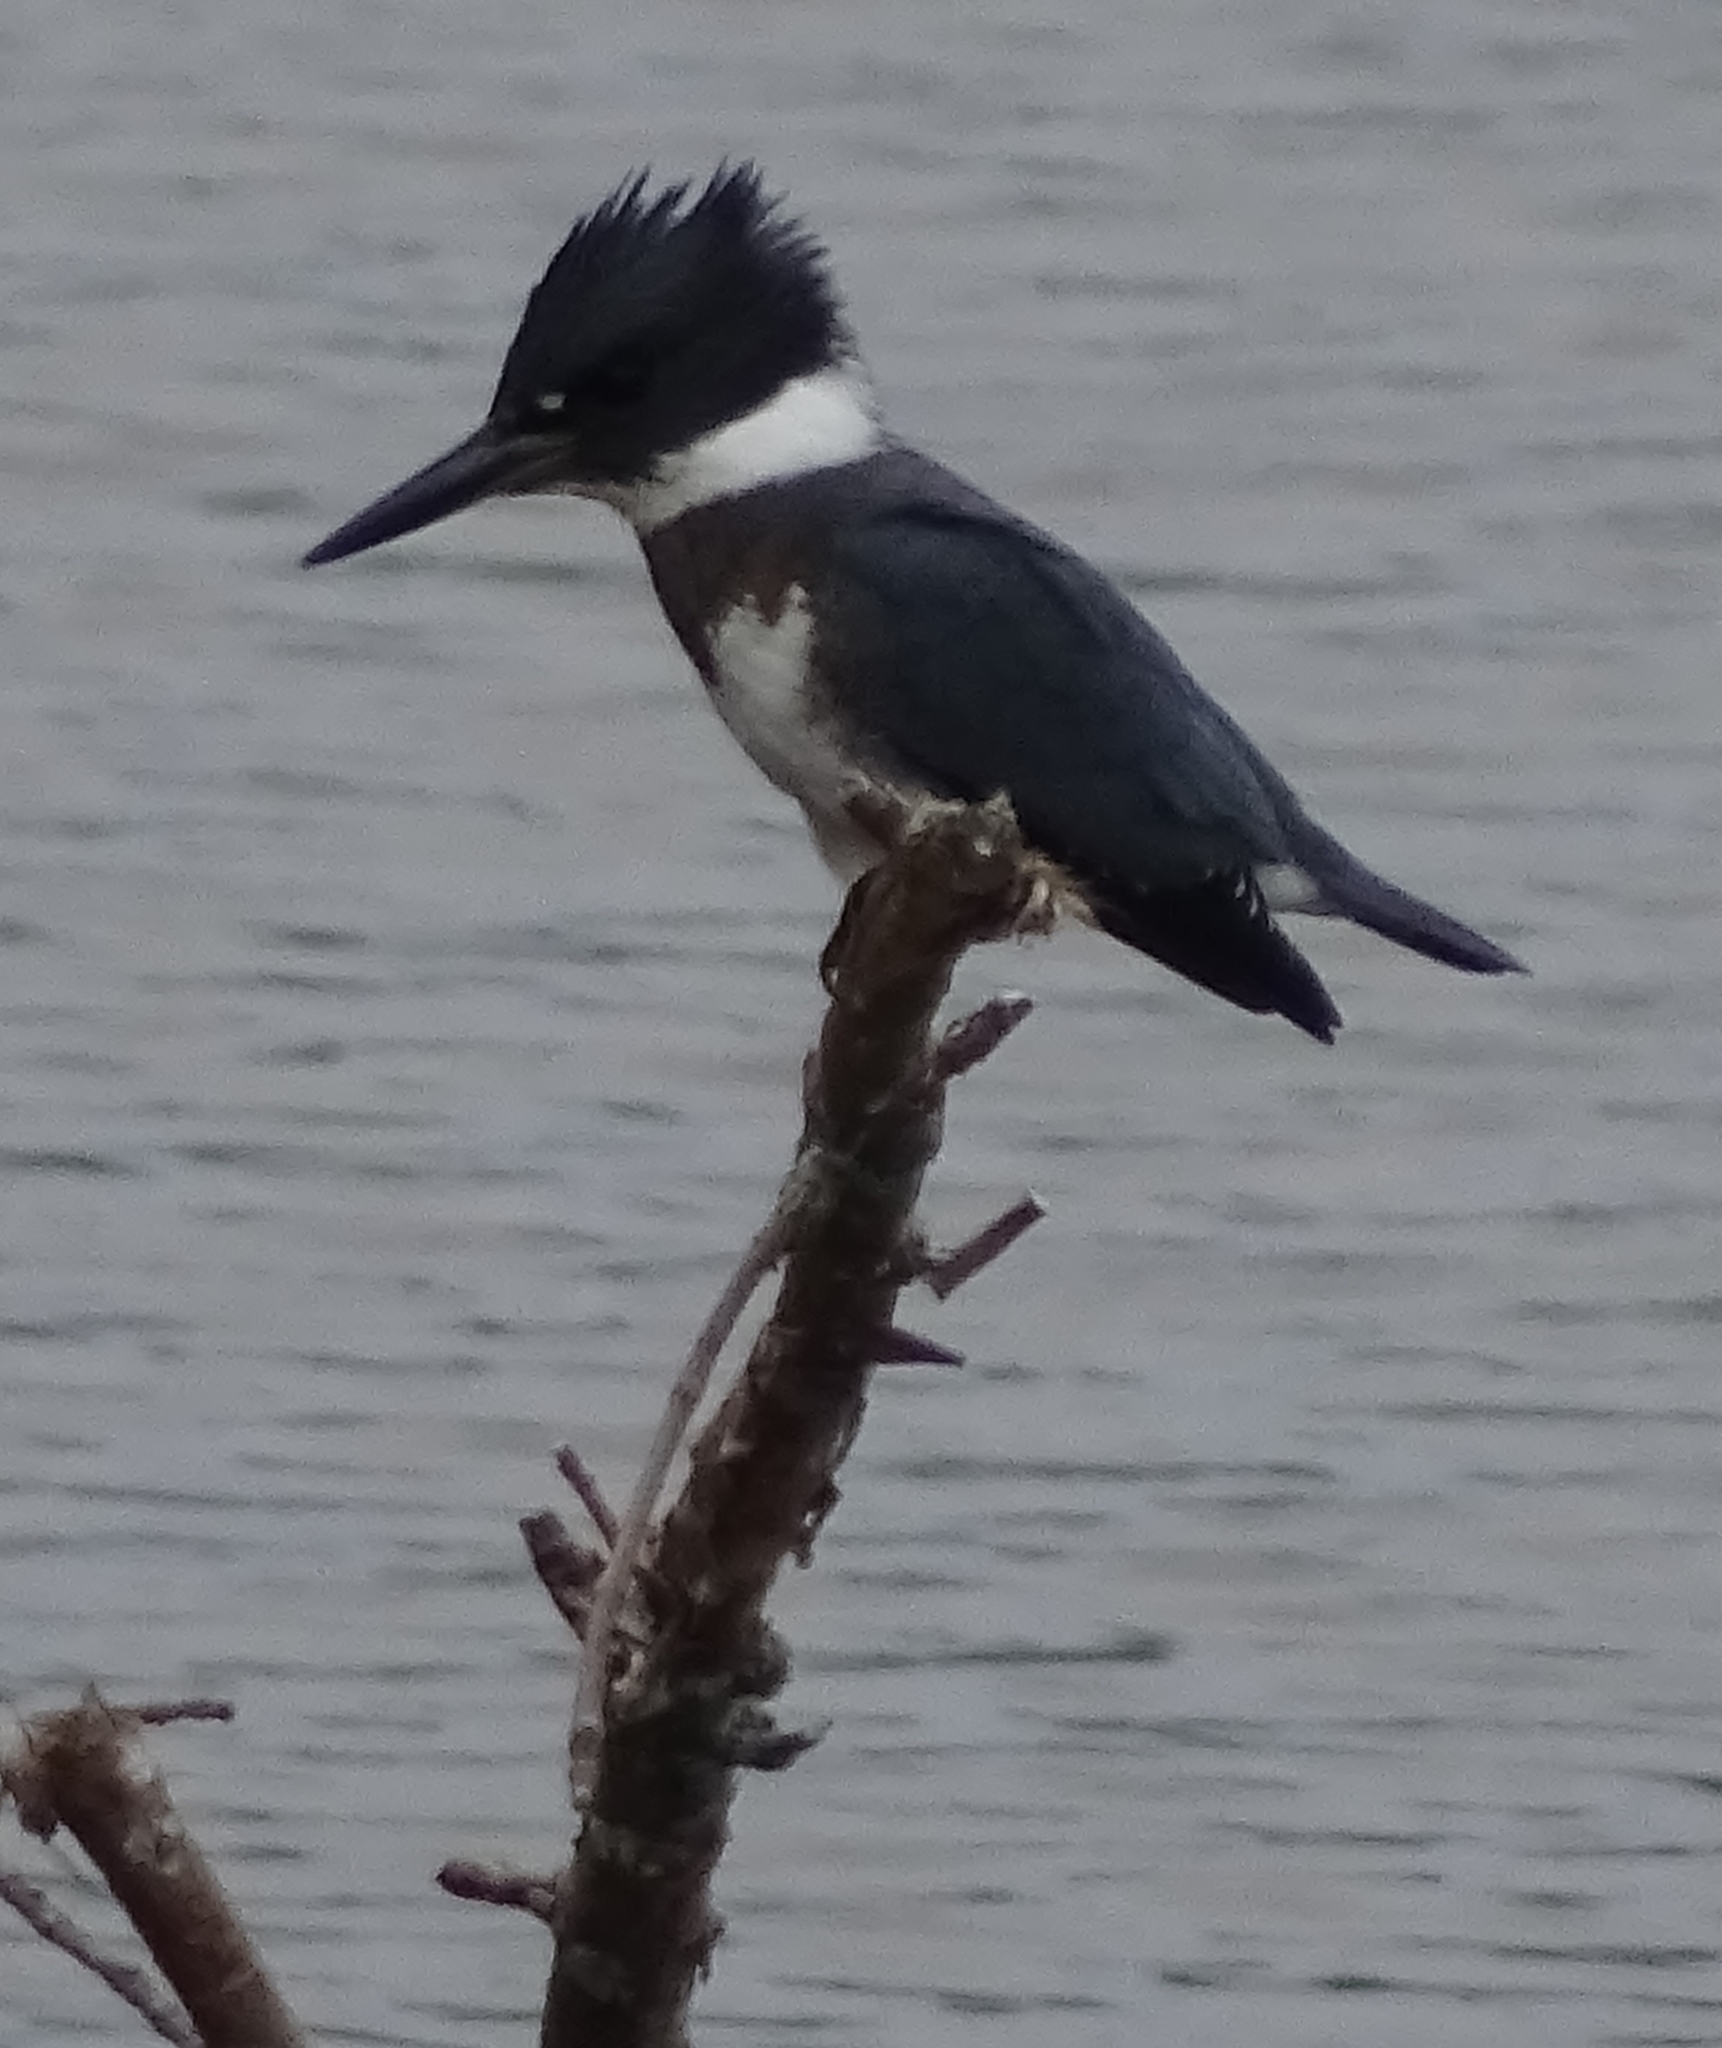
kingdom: Animalia
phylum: Chordata
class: Aves
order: Coraciiformes
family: Alcedinidae
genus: Megaceryle
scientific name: Megaceryle alcyon
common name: Belted kingfisher
